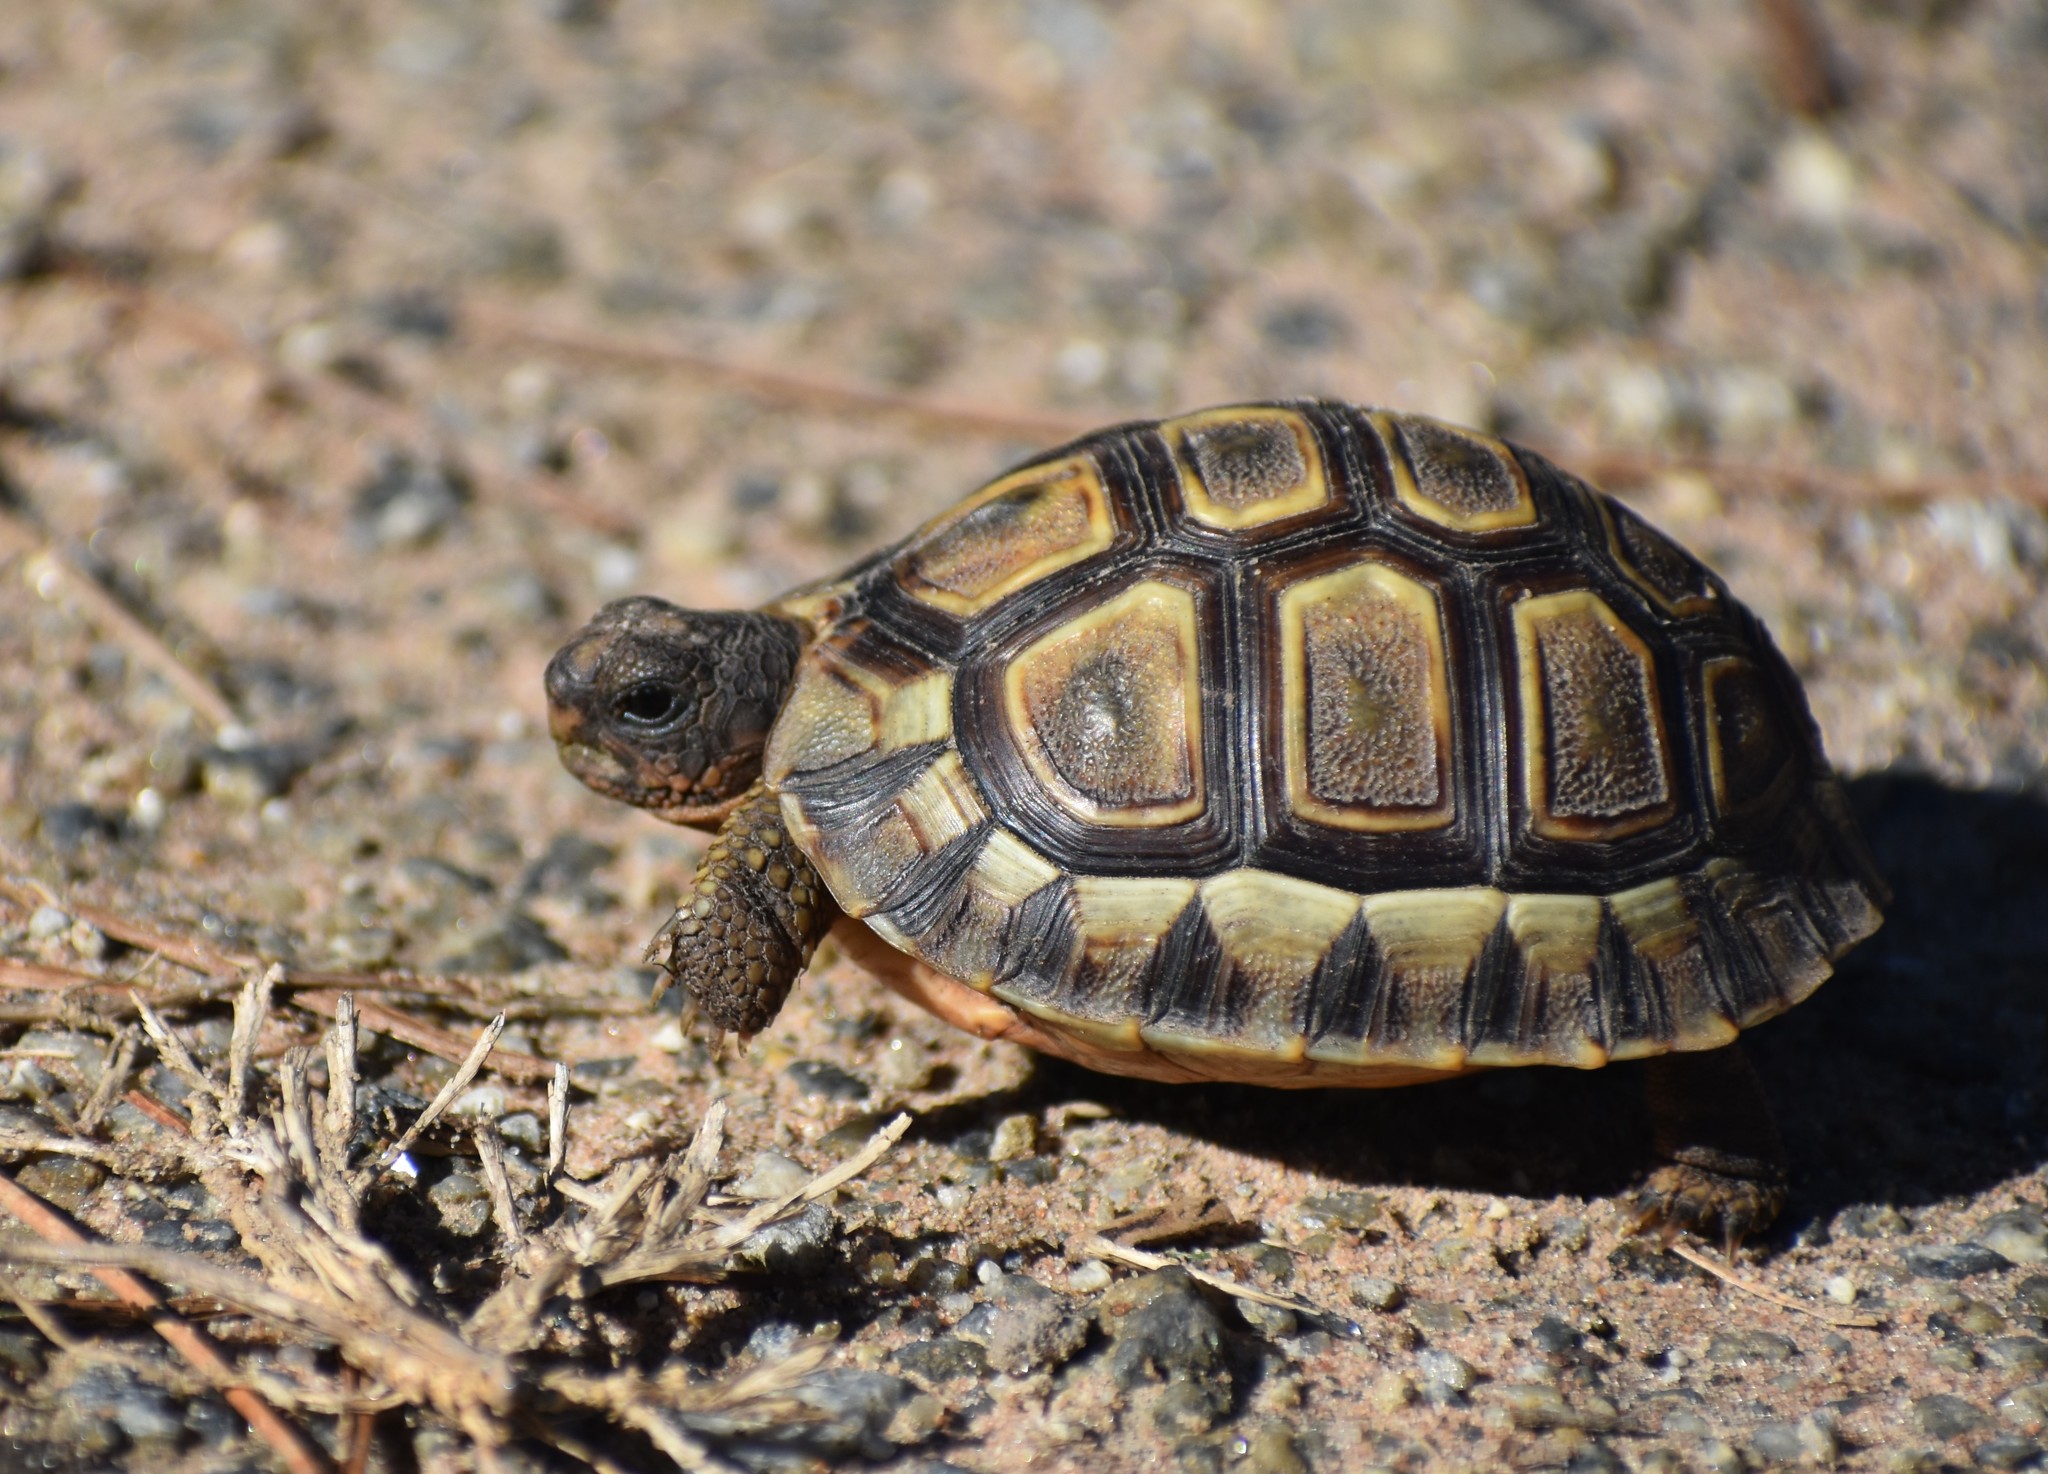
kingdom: Animalia
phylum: Chordata
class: Testudines
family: Testudinidae
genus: Chersina
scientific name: Chersina angulata
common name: South african bowsprit tortoise
